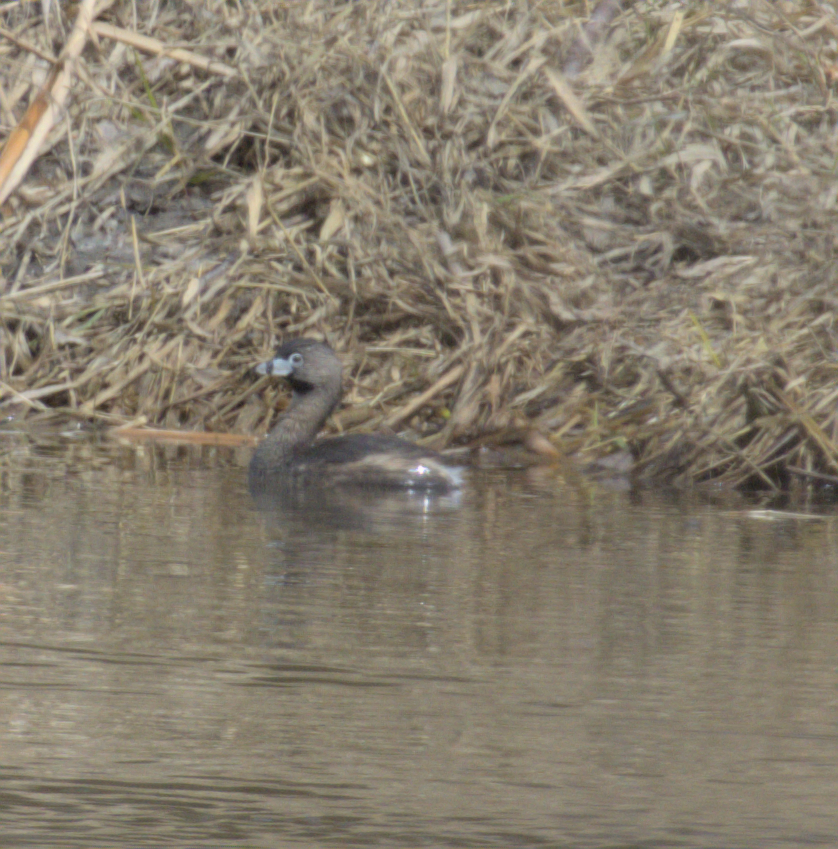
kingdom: Animalia
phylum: Chordata
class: Aves
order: Podicipediformes
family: Podicipedidae
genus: Podilymbus
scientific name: Podilymbus podiceps
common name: Pied-billed grebe
